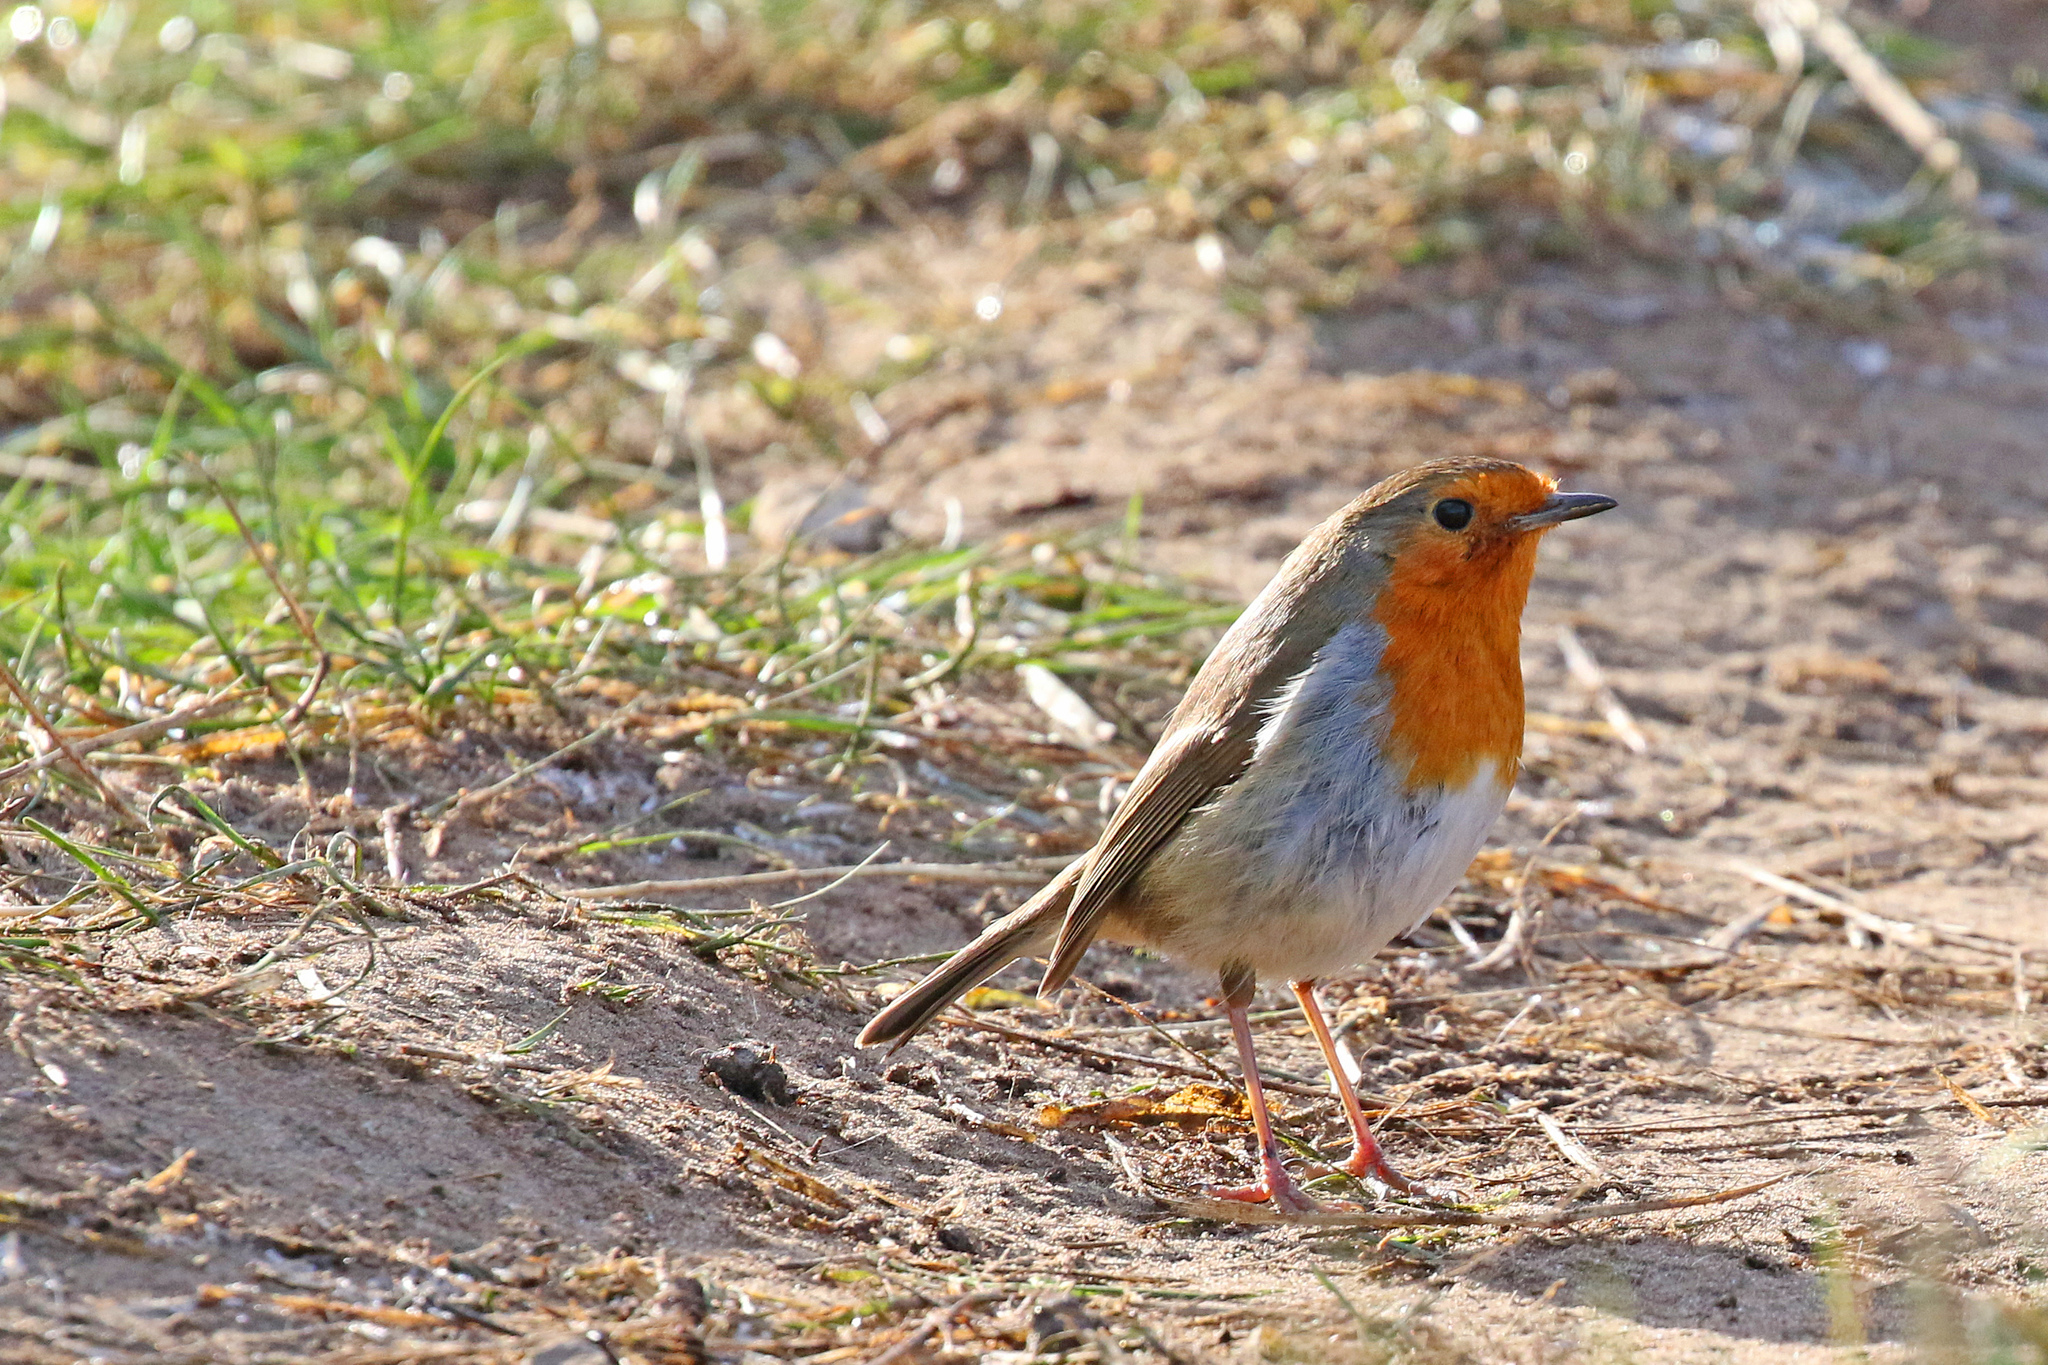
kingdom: Animalia
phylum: Chordata
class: Aves
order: Passeriformes
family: Muscicapidae
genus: Erithacus
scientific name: Erithacus rubecula
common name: European robin
